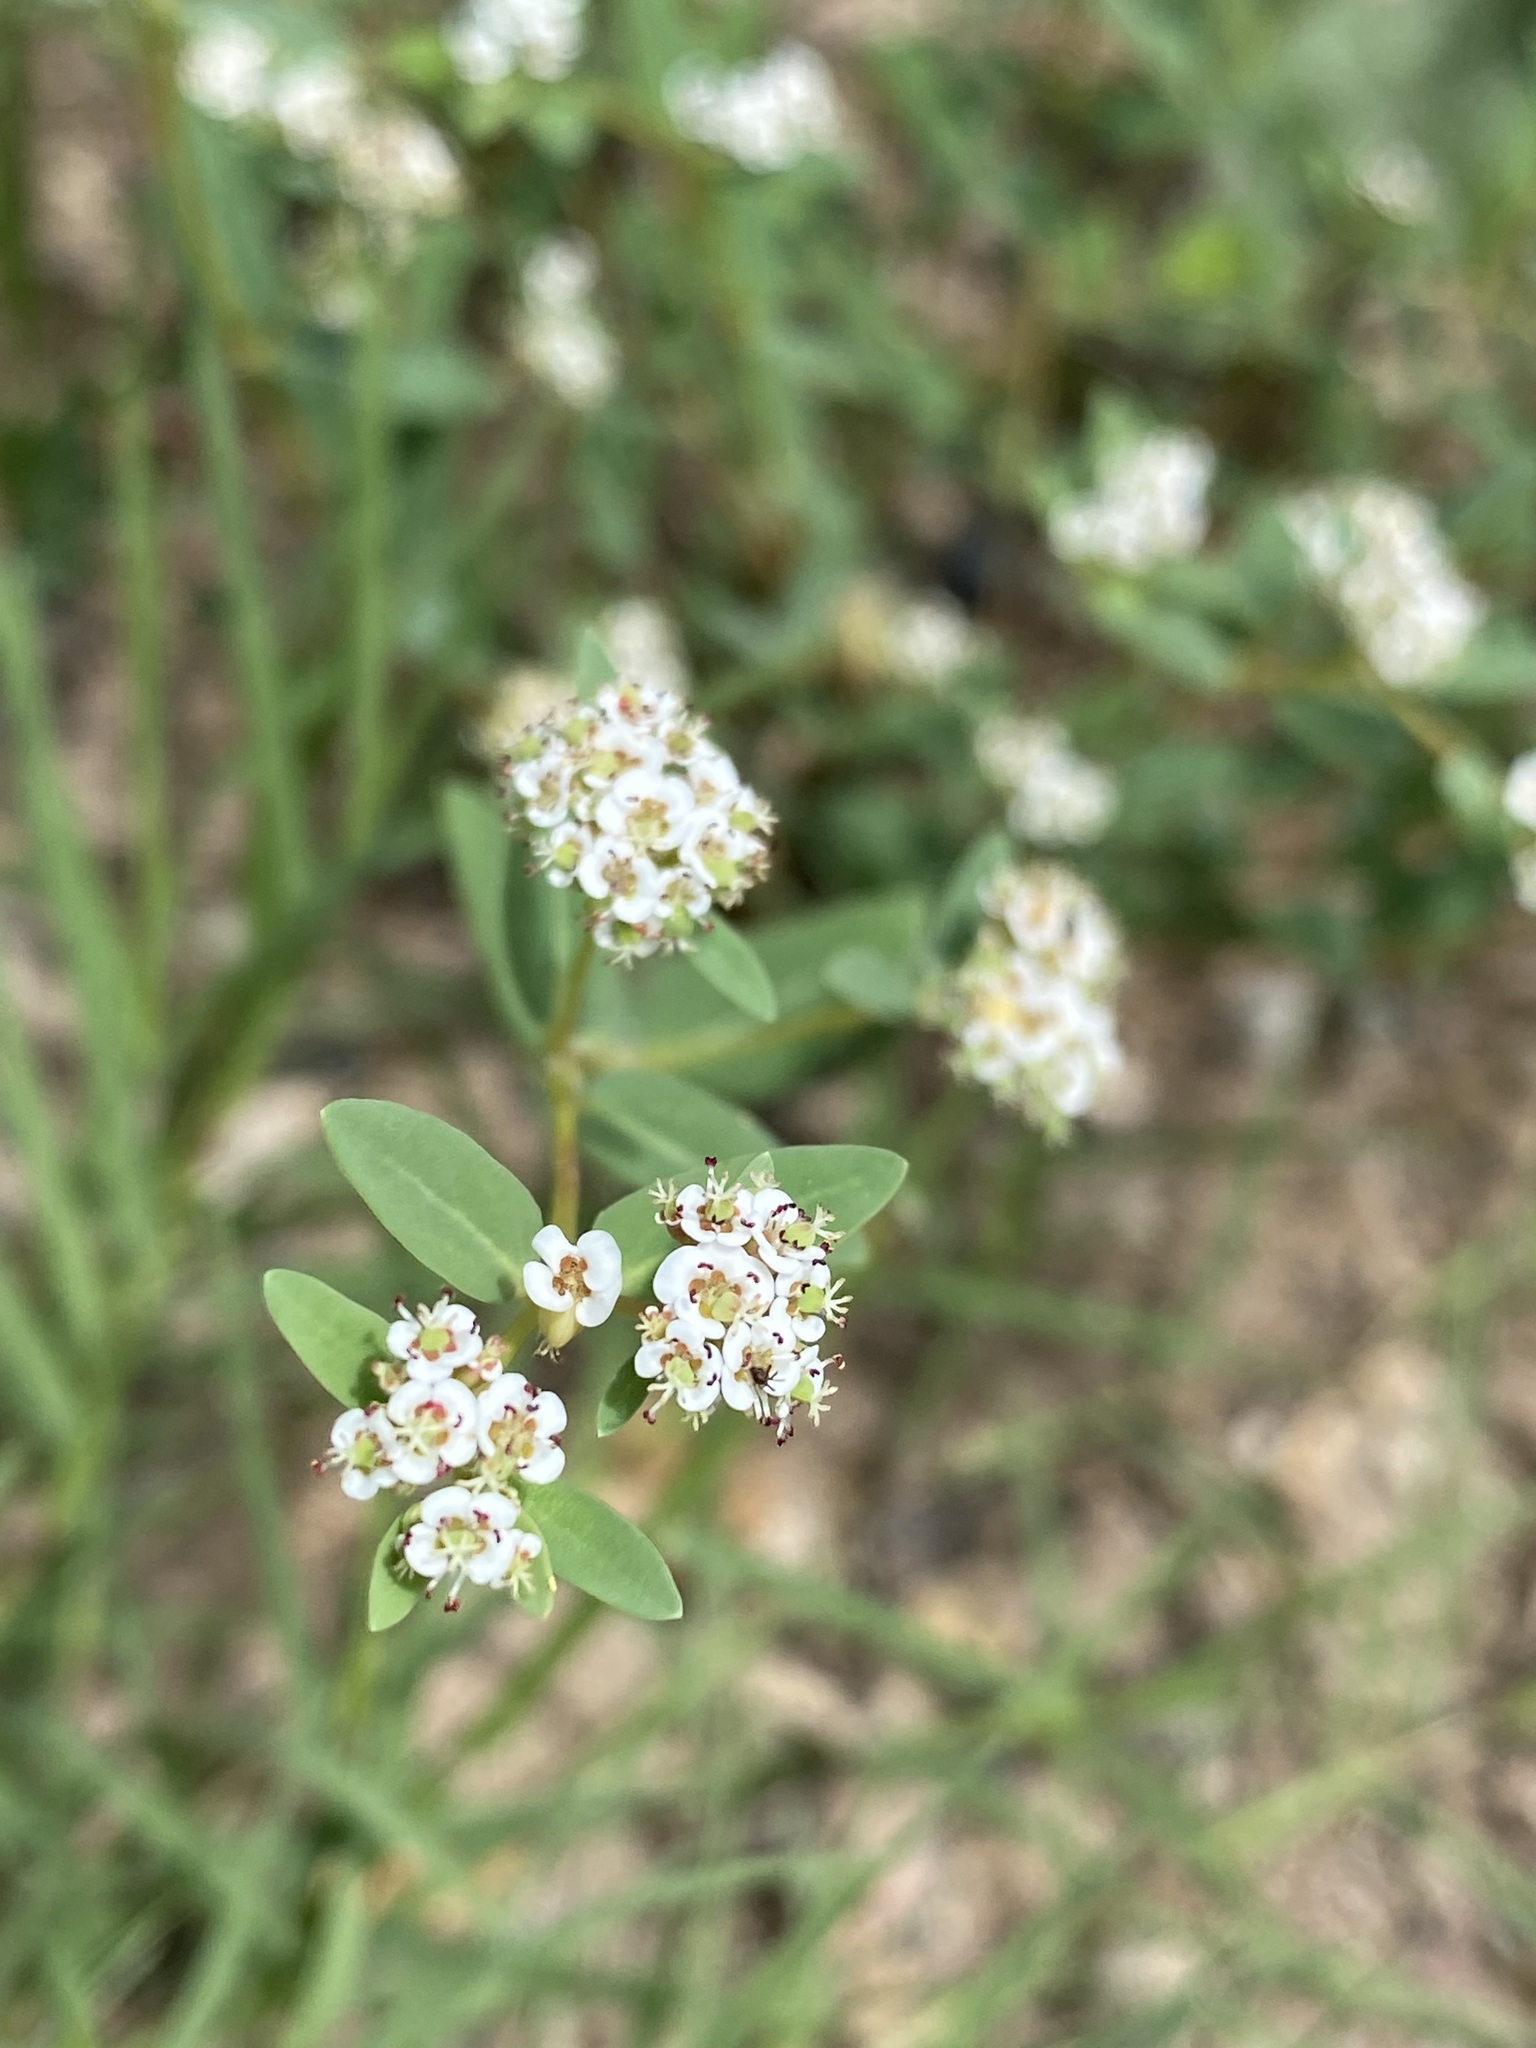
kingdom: Plantae
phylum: Tracheophyta
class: Magnoliopsida
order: Malpighiales
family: Euphorbiaceae
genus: Euphorbia
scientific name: Euphorbia capitellata
